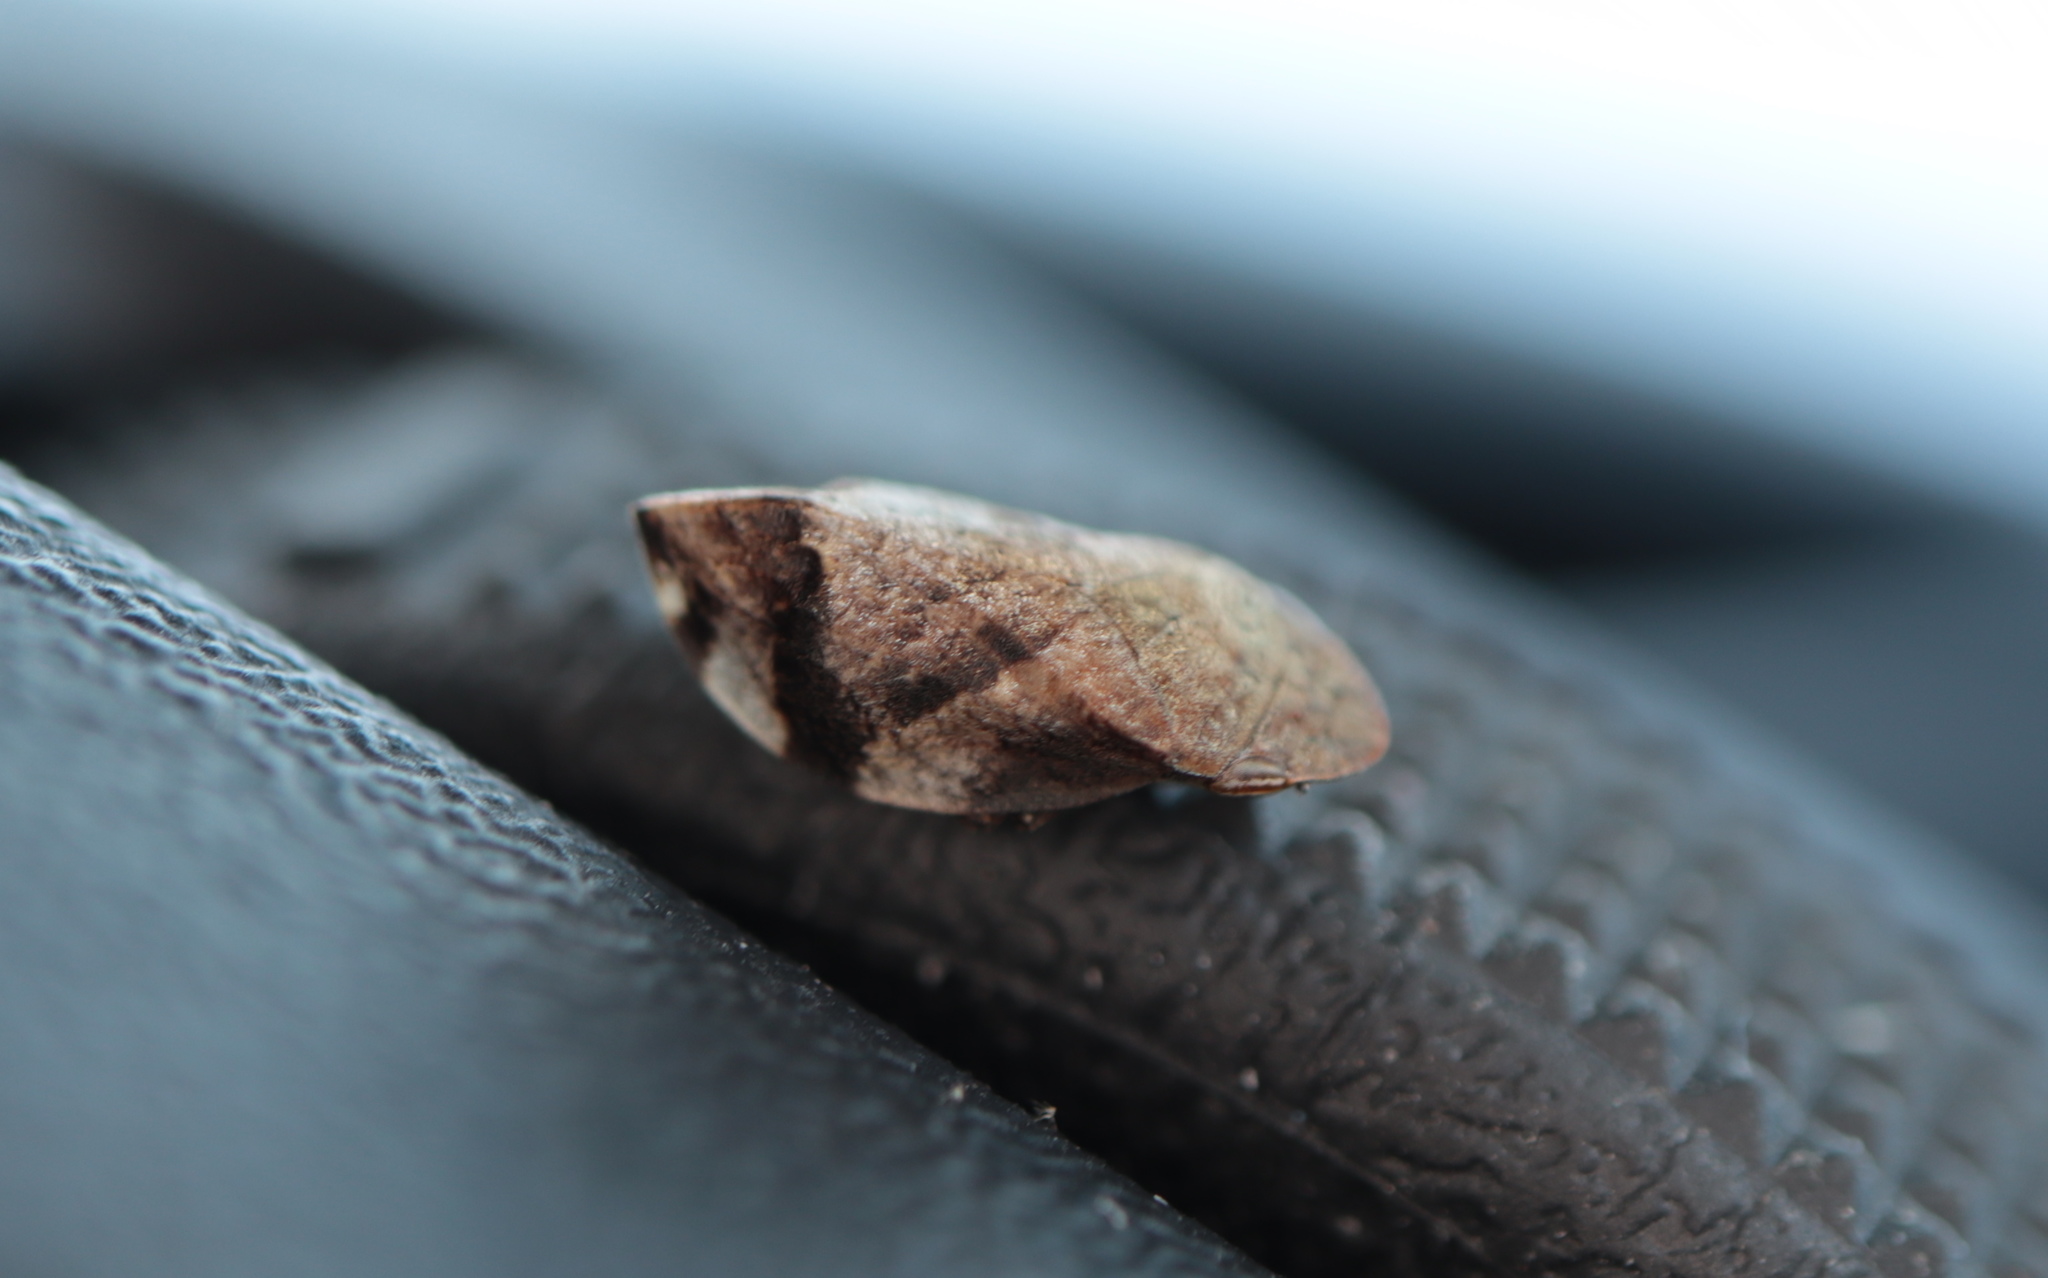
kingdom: Animalia
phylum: Arthropoda
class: Insecta
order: Hemiptera
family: Aphrophoridae
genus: Lepyronia
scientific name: Lepyronia quadrangularis
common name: Diamond-backed spittlebug
